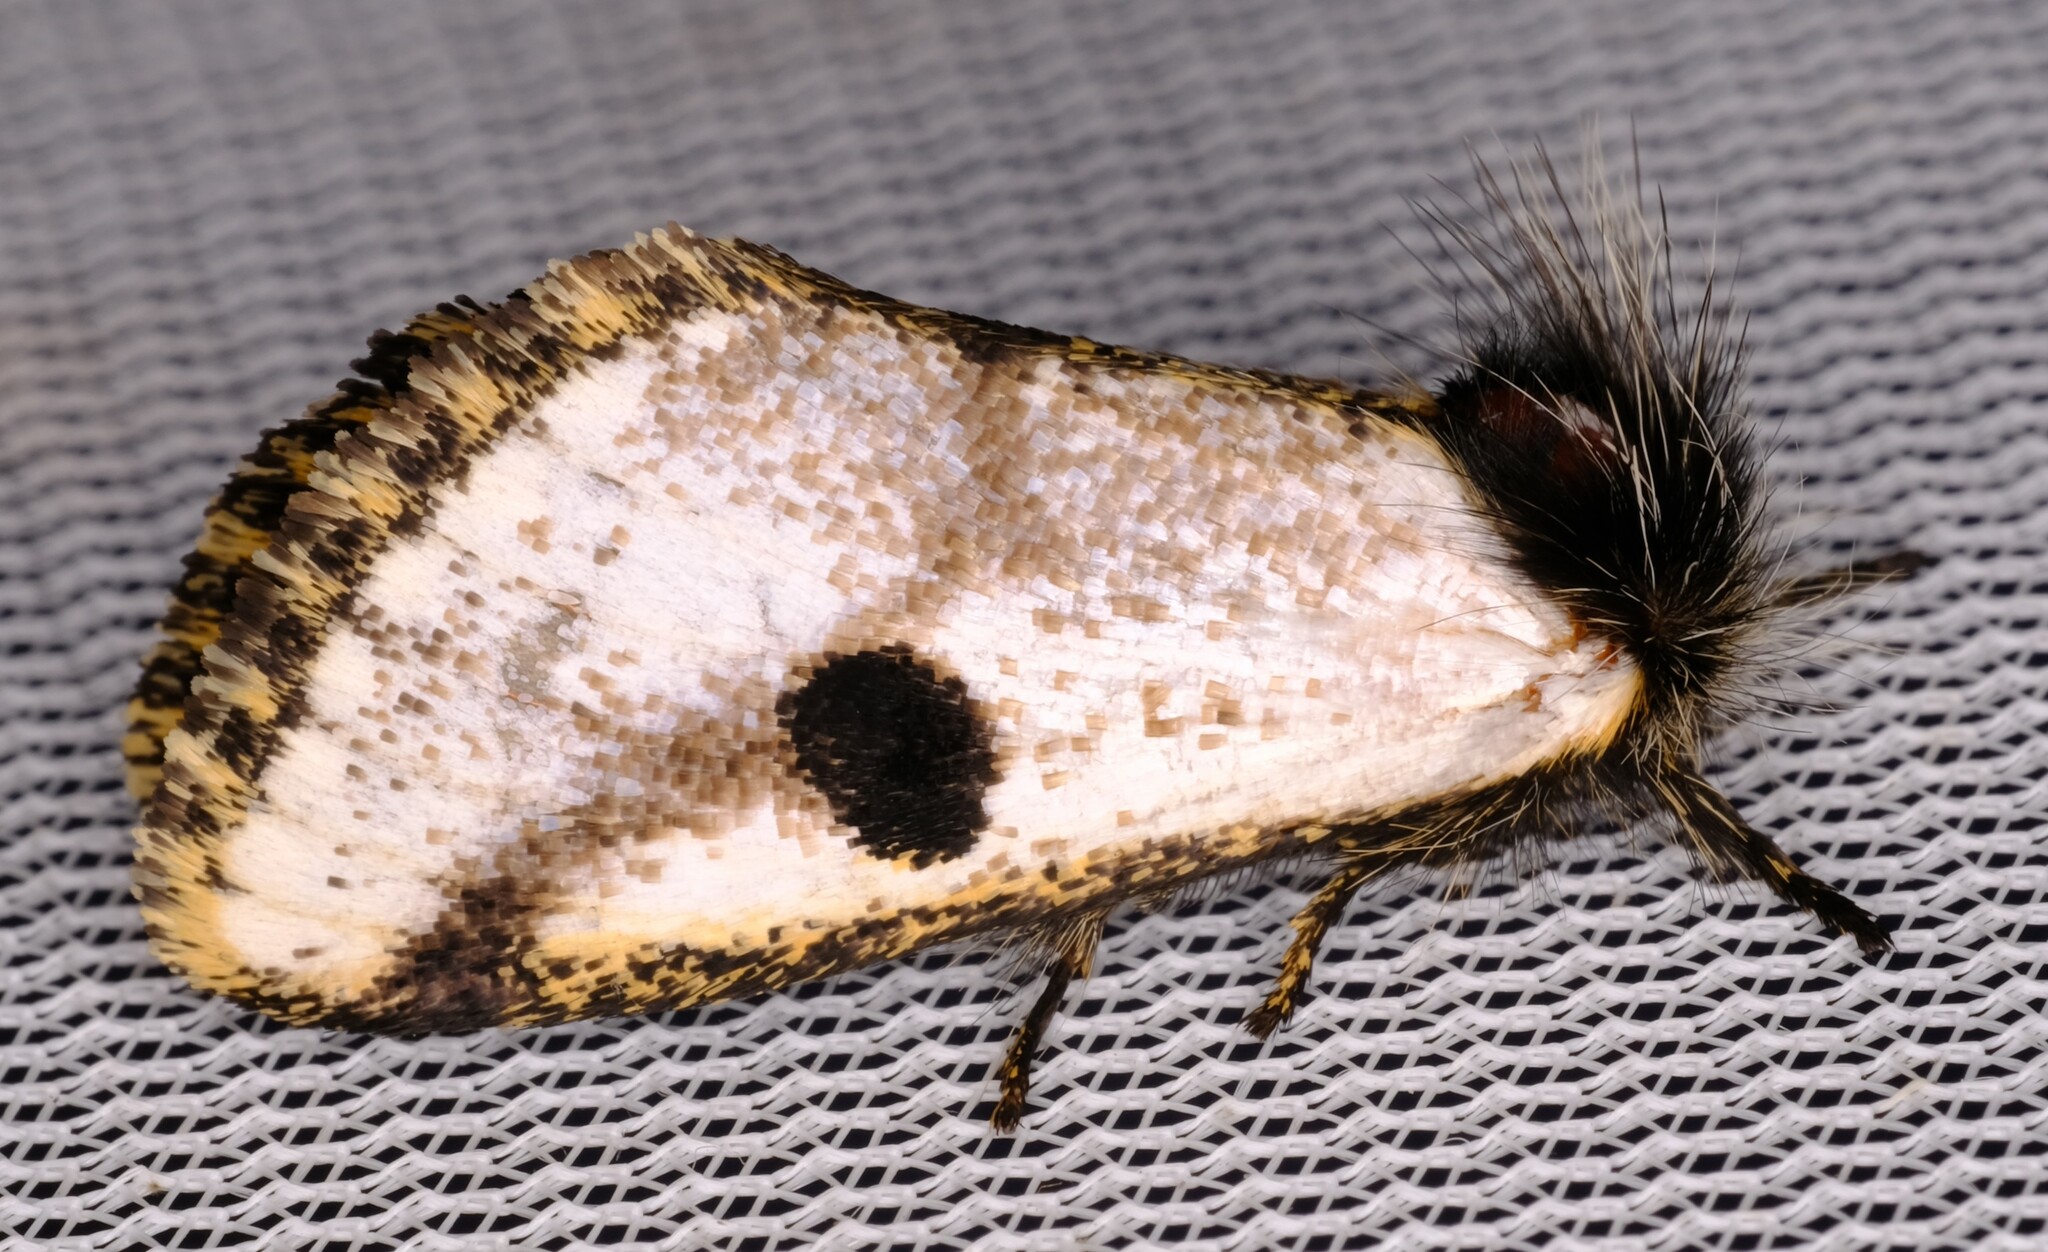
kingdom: Animalia
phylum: Arthropoda
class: Insecta
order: Lepidoptera
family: Notodontidae
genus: Epicoma
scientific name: Epicoma melanospila
